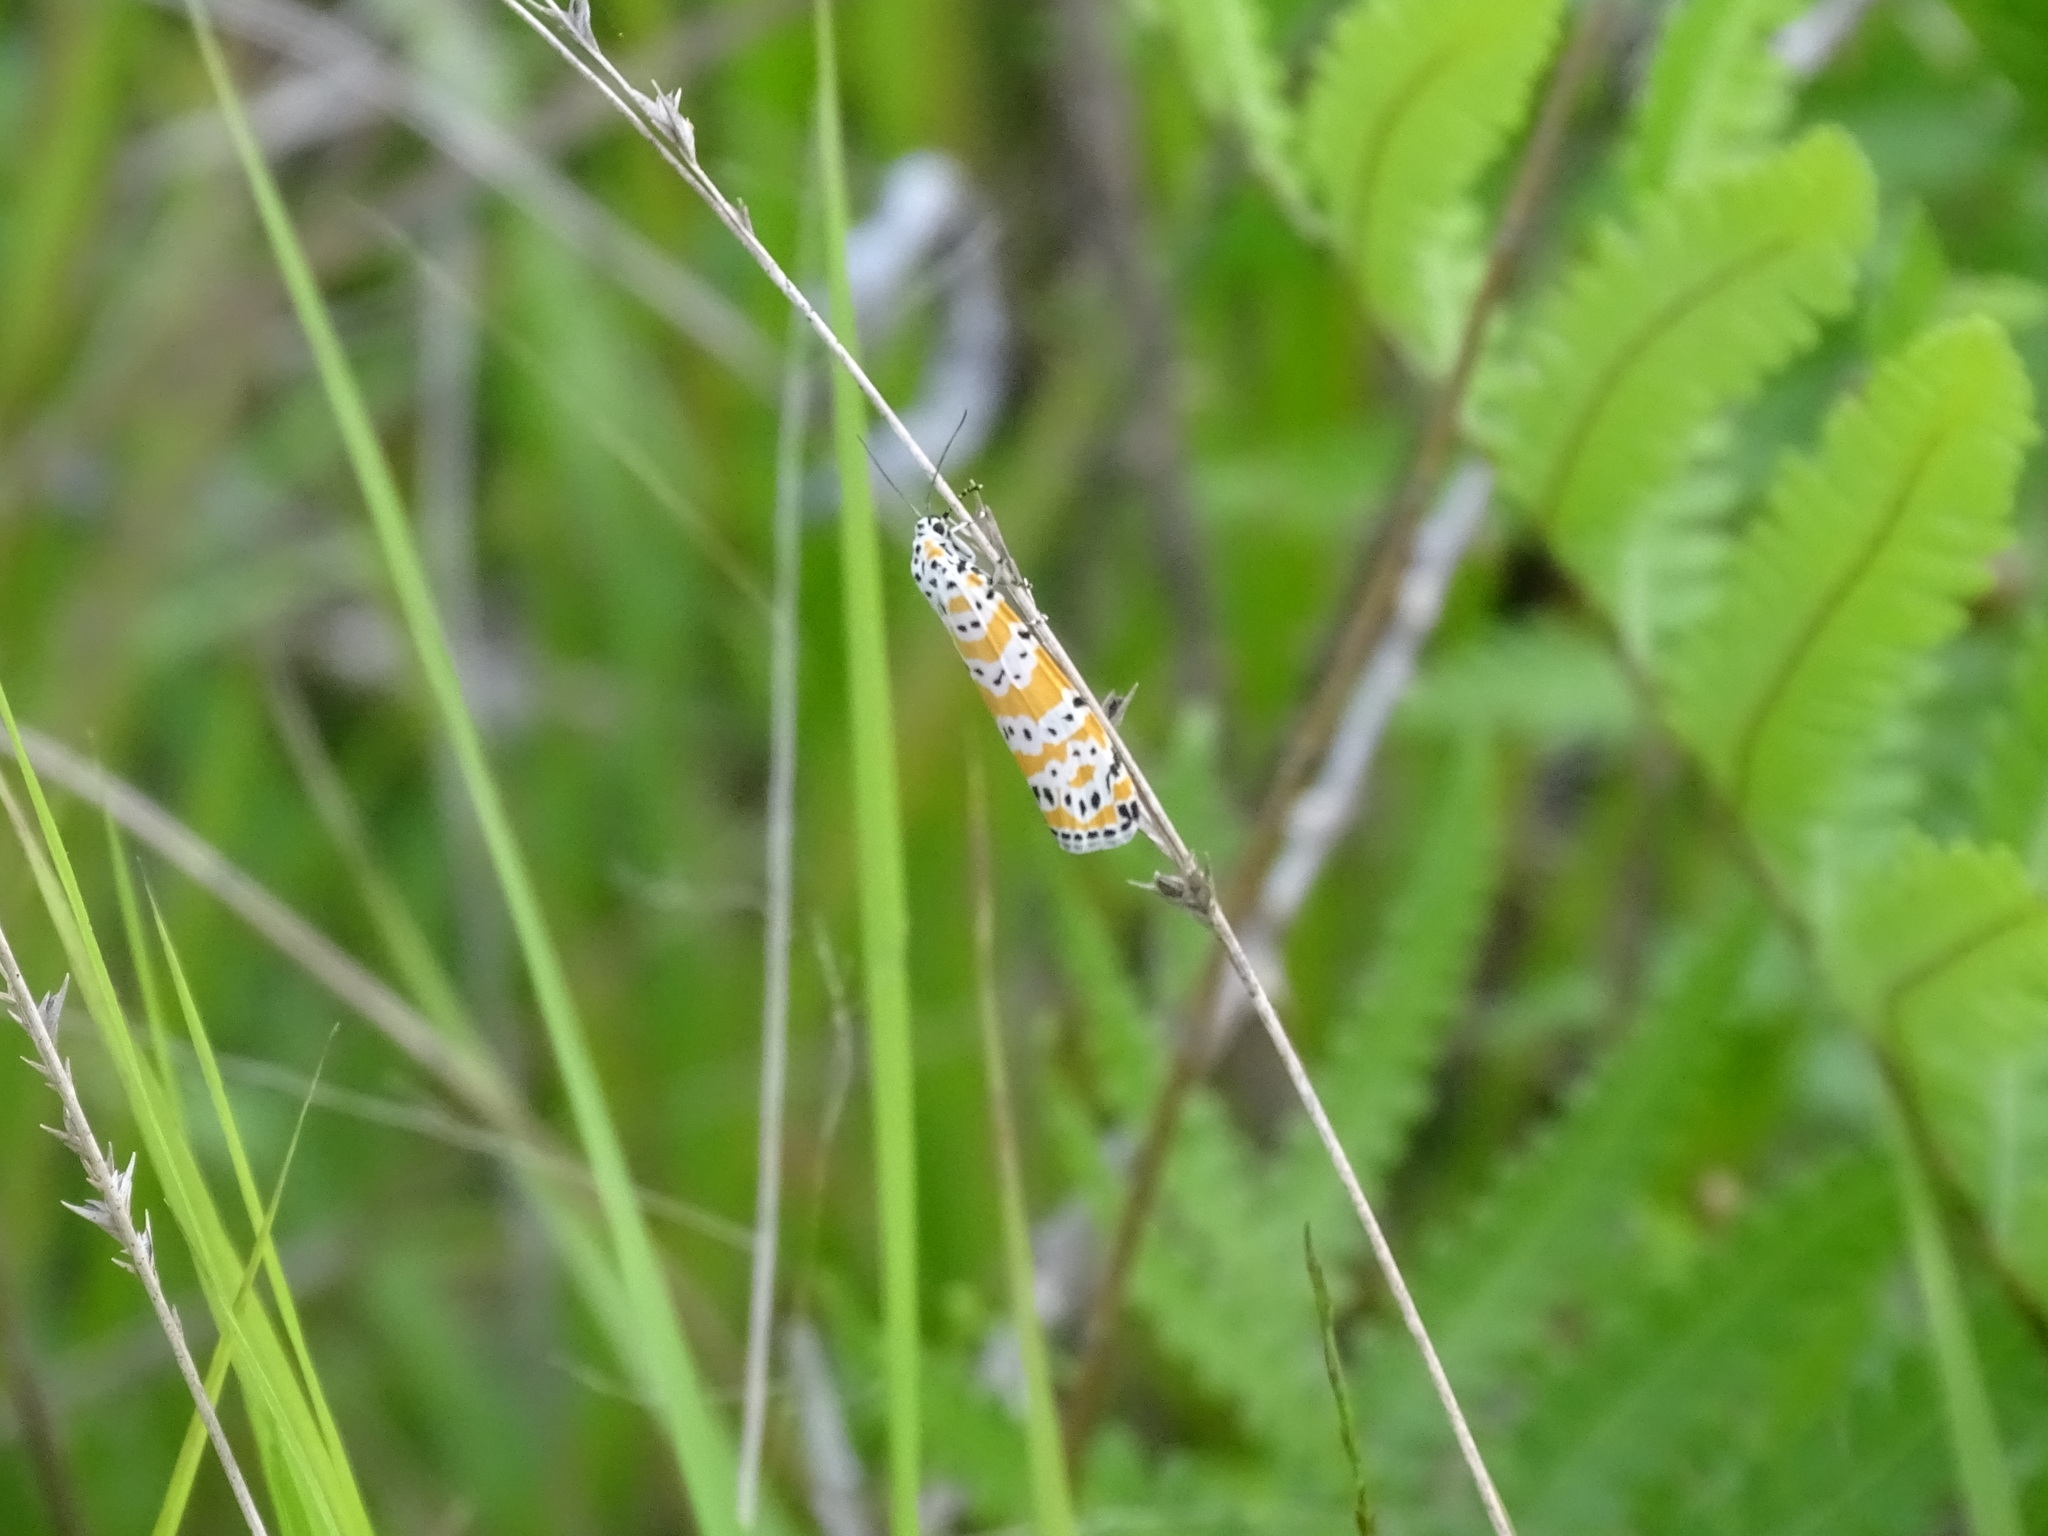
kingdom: Animalia
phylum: Arthropoda
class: Insecta
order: Lepidoptera
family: Erebidae
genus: Utetheisa
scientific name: Utetheisa ornatrix
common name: Beautiful utetheisa
